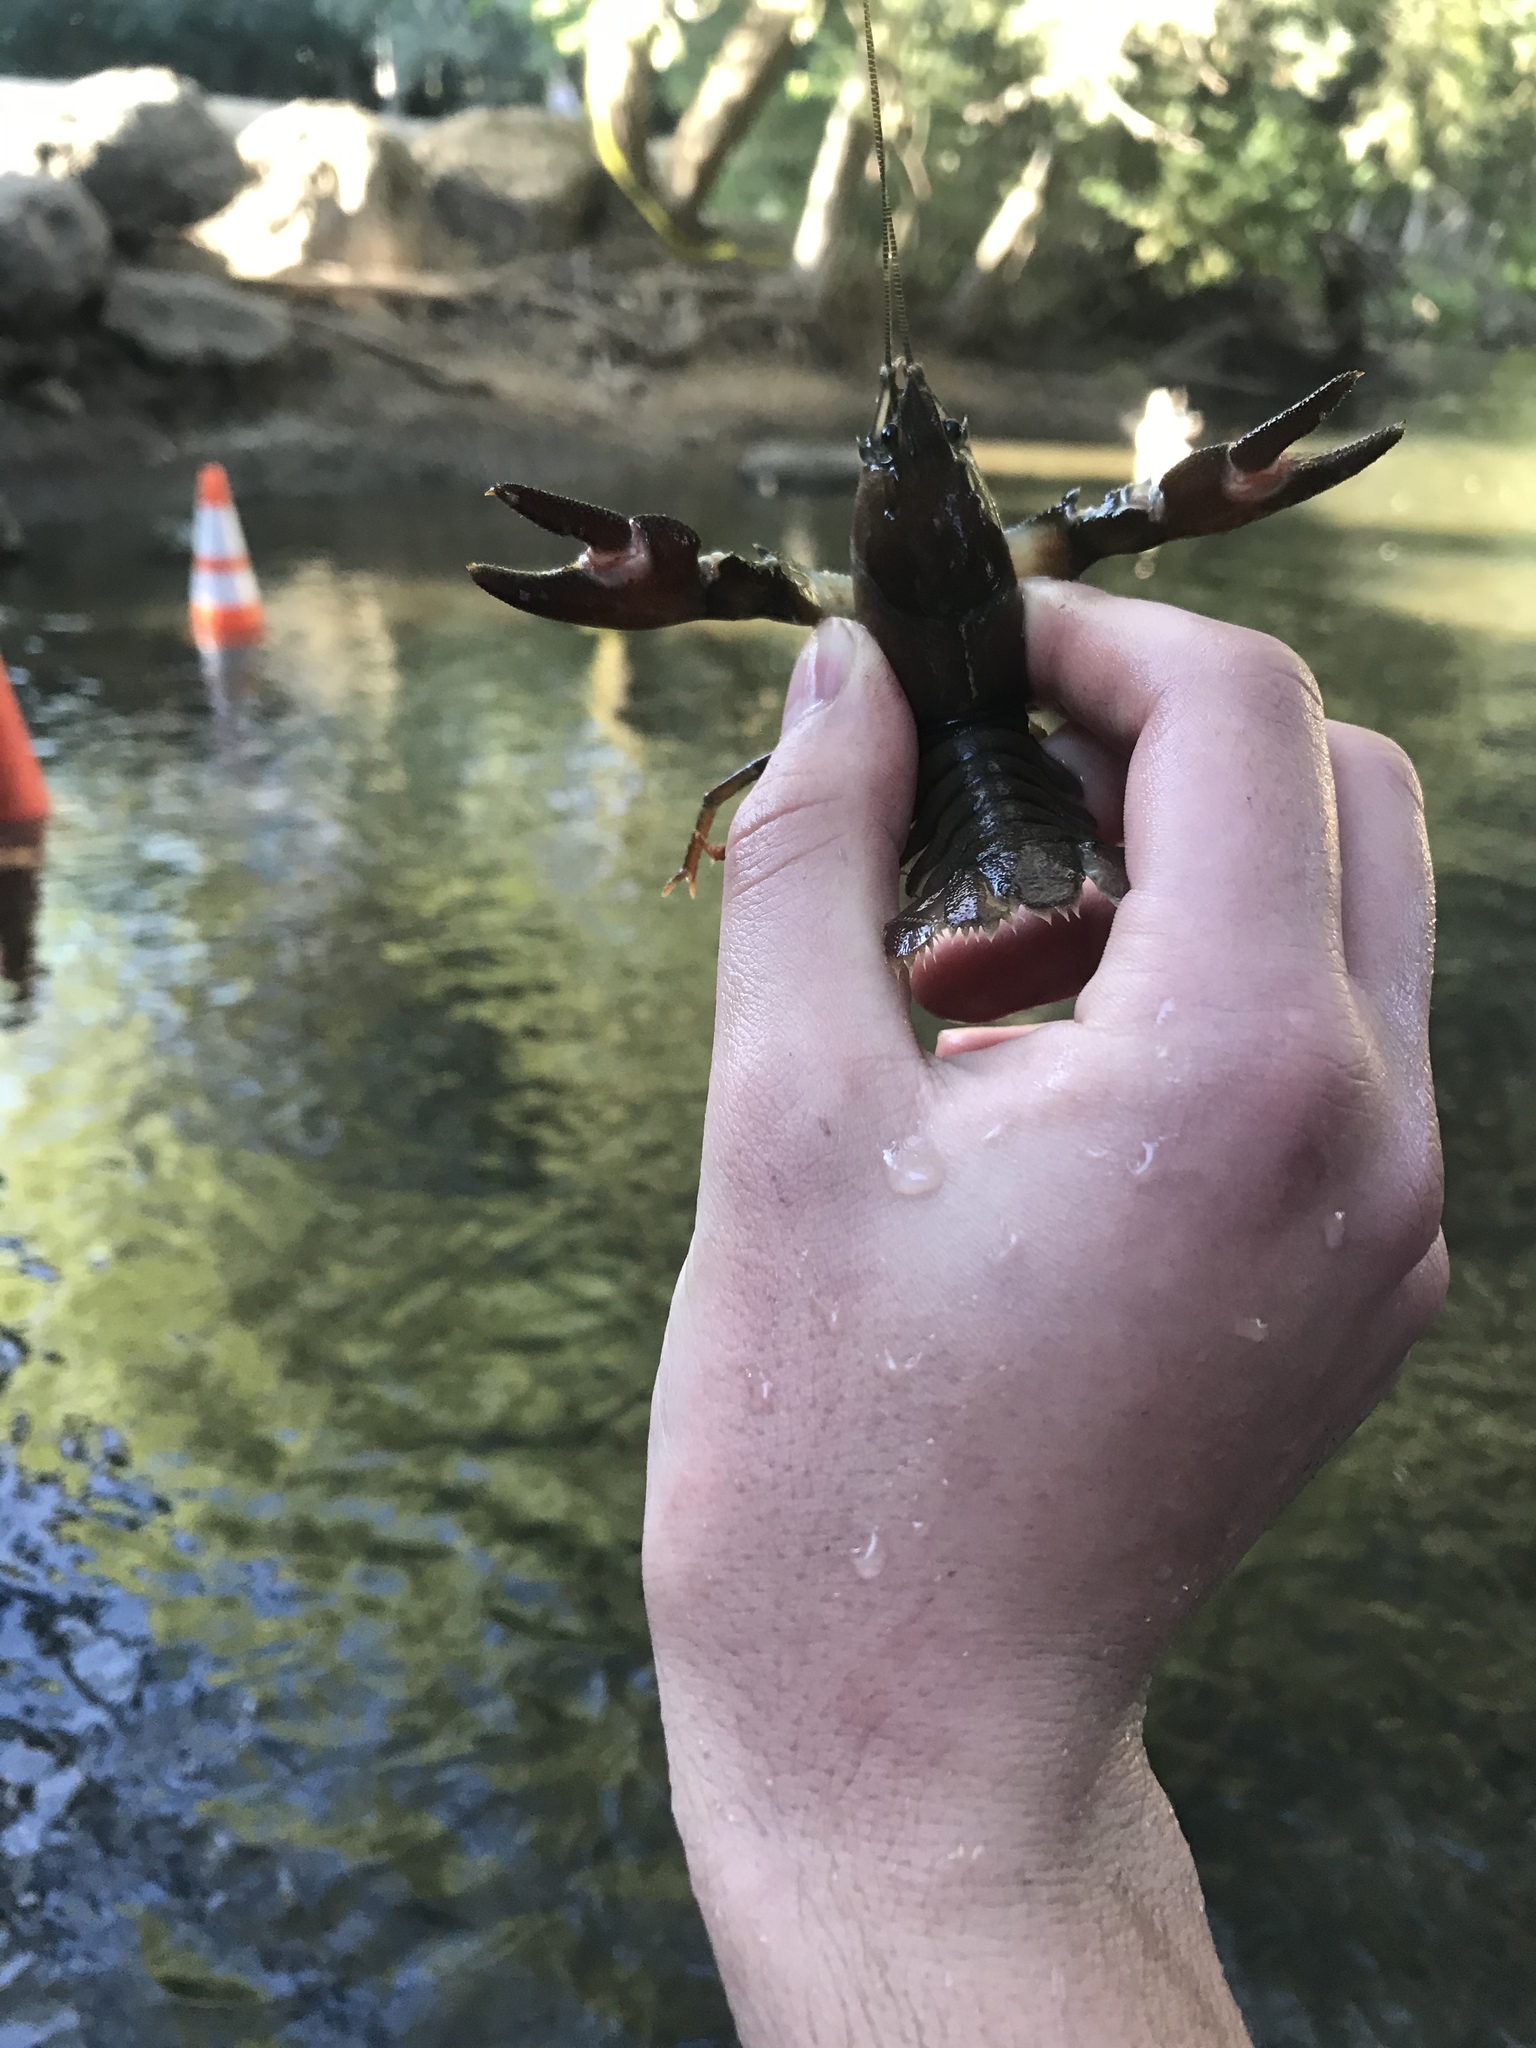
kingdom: Animalia
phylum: Arthropoda
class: Malacostraca
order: Decapoda
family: Astacidae
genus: Pacifastacus
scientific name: Pacifastacus leniusculus
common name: Signal crayfish
